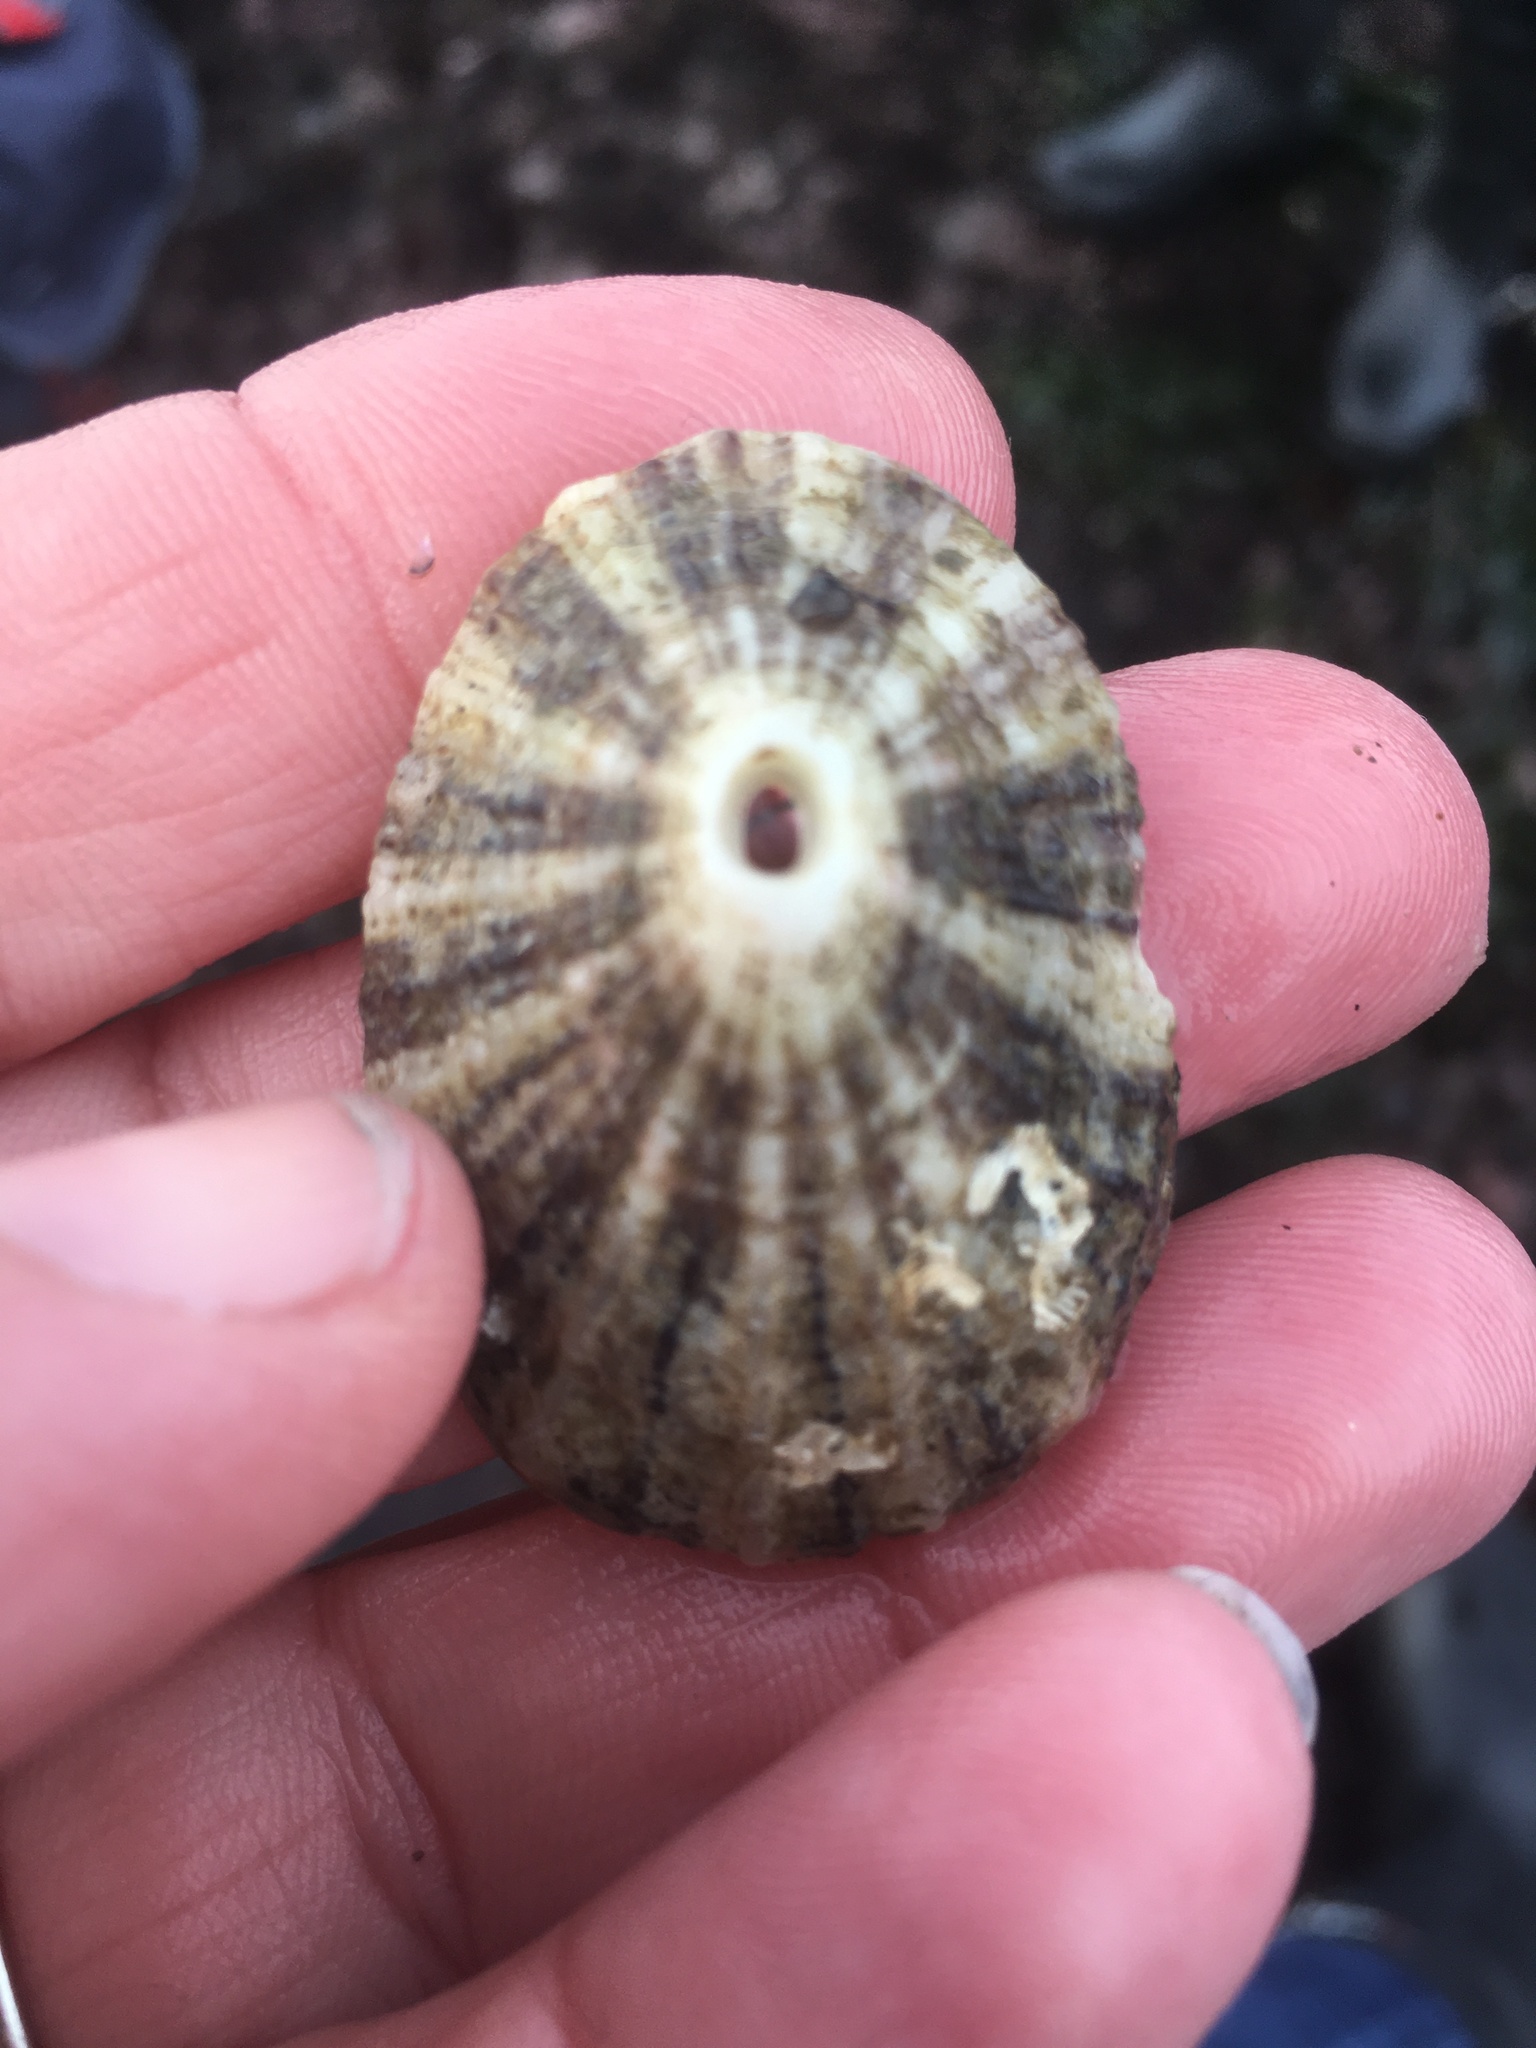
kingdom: Animalia
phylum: Mollusca
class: Gastropoda
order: Lepetellida
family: Fissurellidae
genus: Diodora
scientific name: Diodora aspera
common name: Rough keyhole limpet
